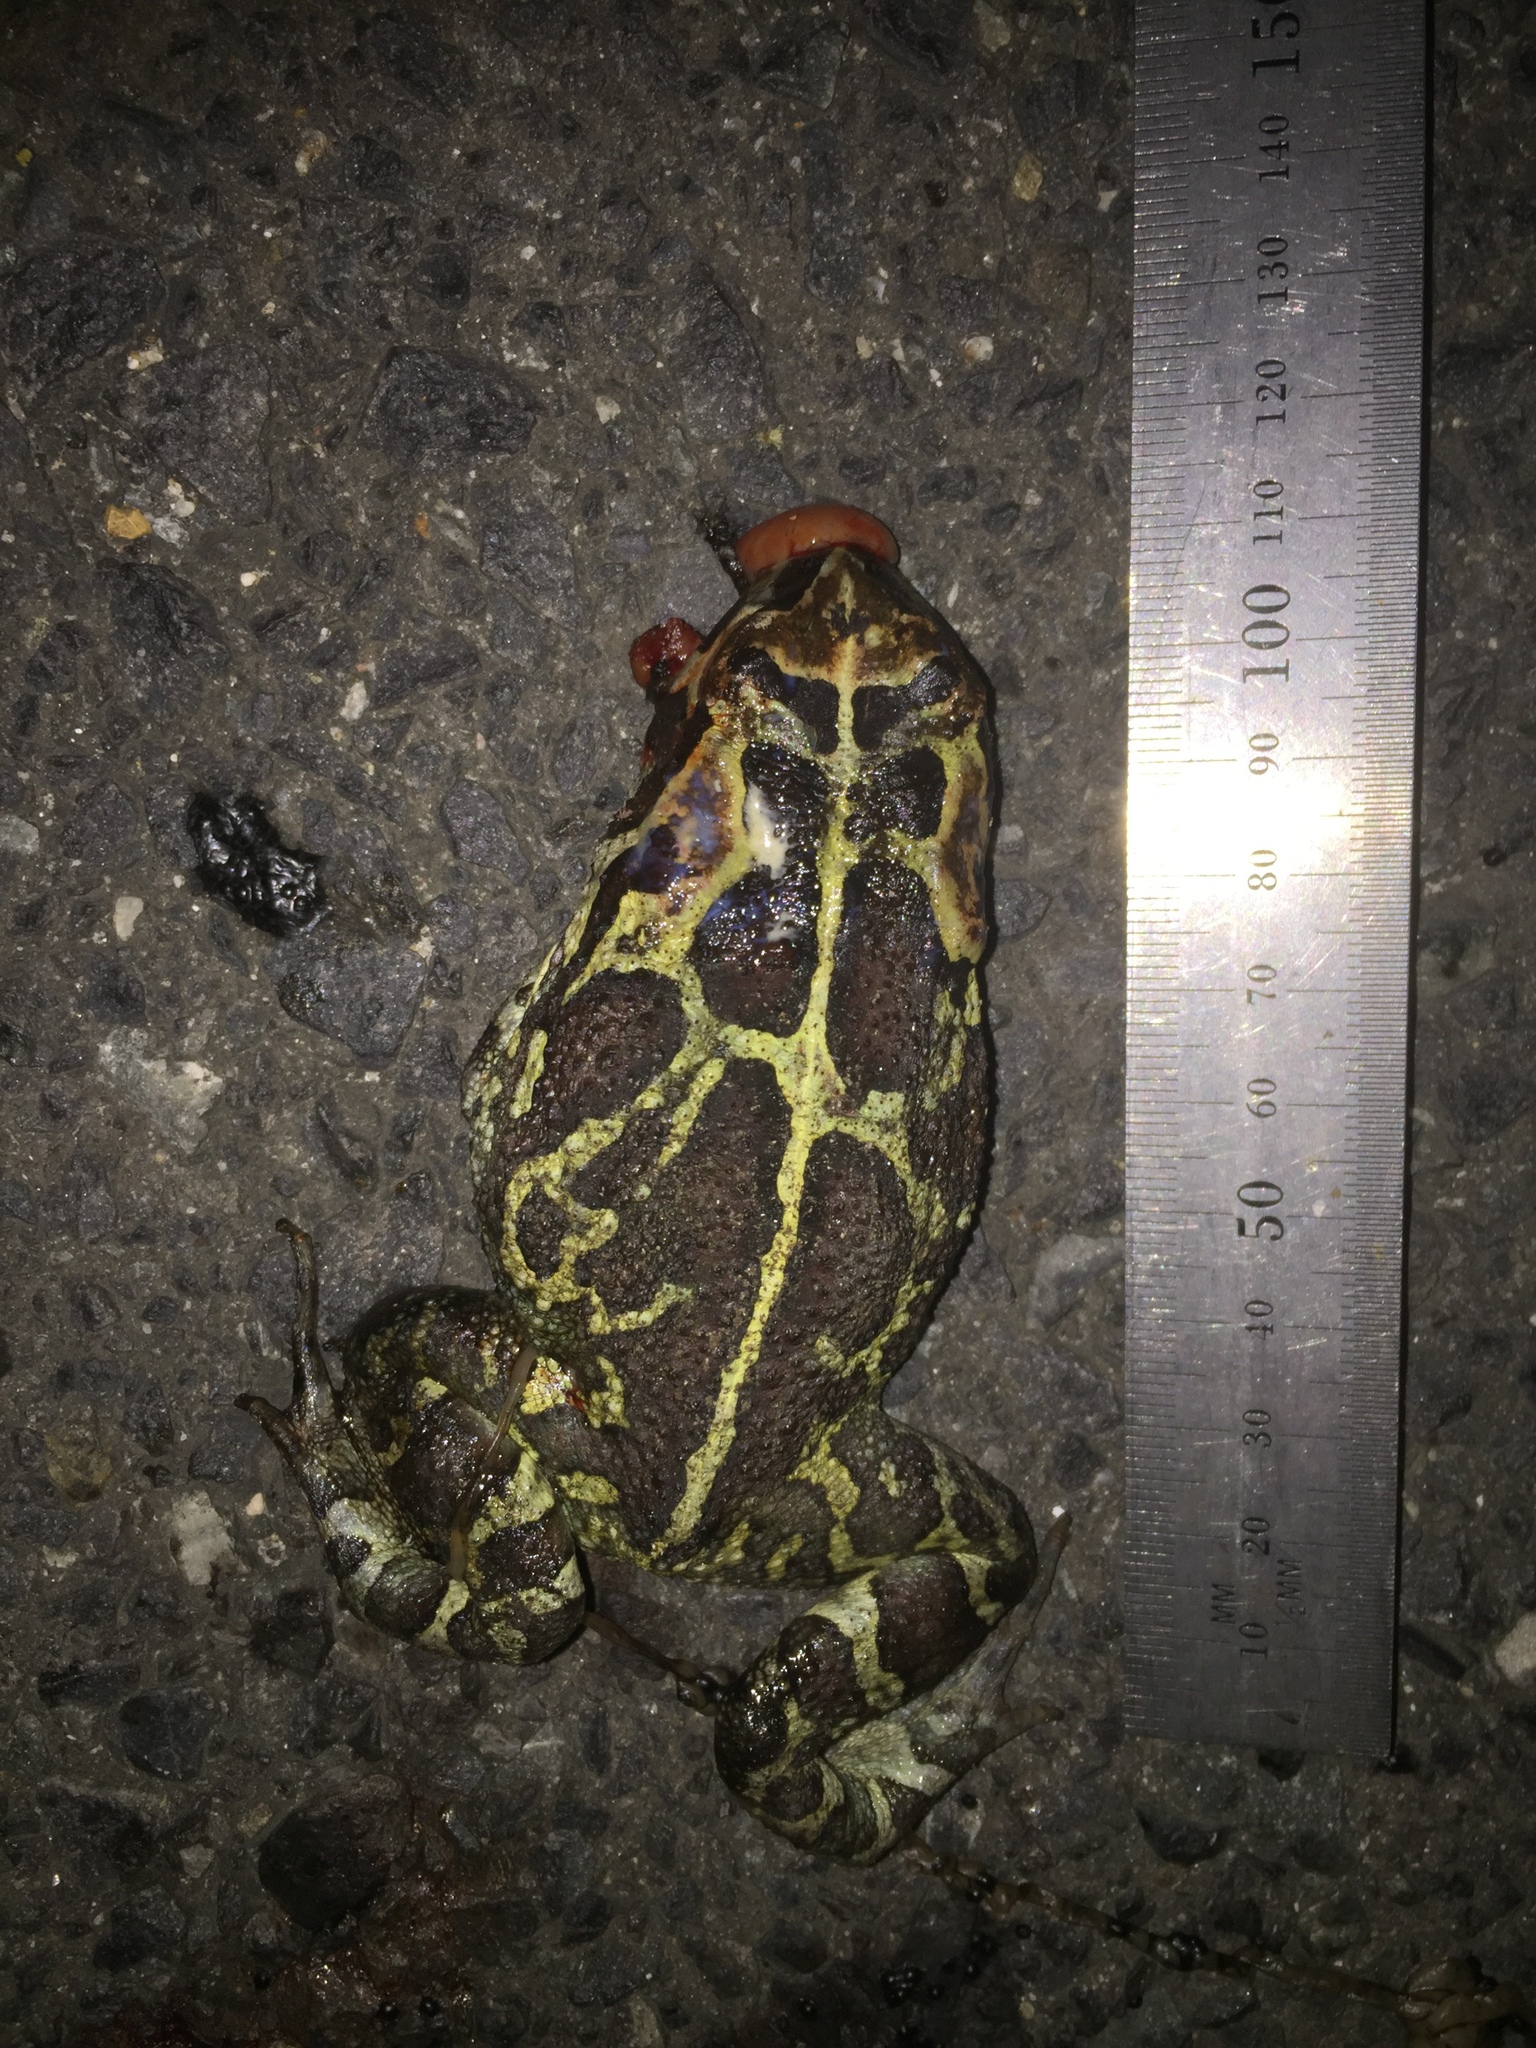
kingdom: Animalia
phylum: Chordata
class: Amphibia
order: Anura
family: Bufonidae
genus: Sclerophrys
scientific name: Sclerophrys pantherina
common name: Panther toad
